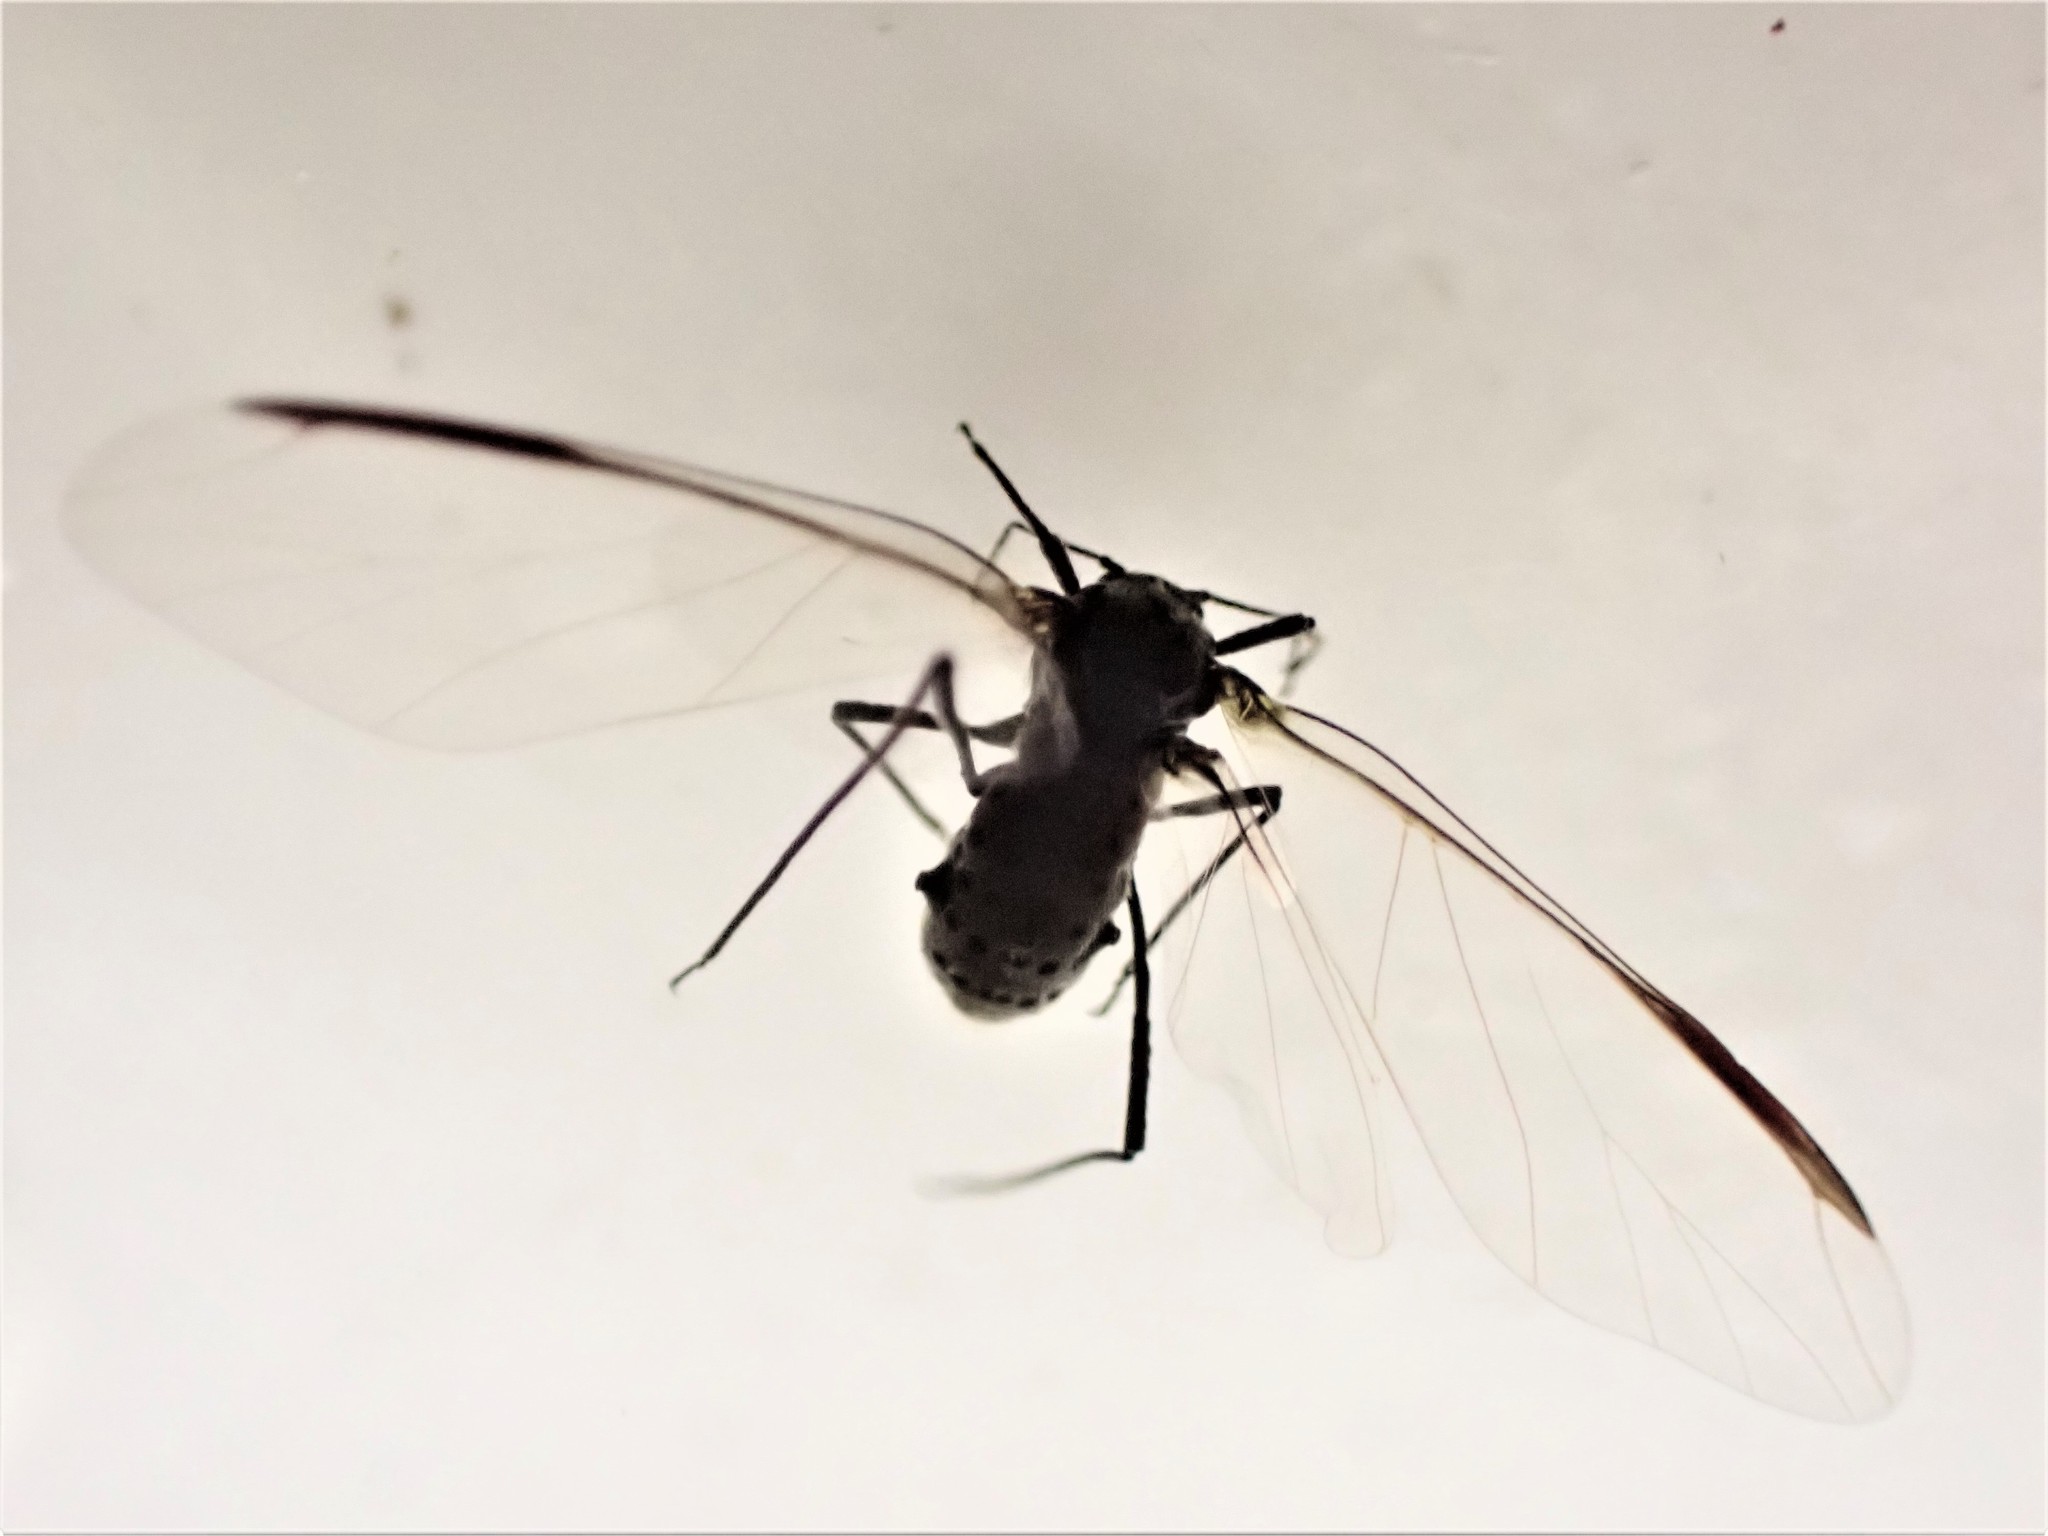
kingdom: Animalia
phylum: Arthropoda
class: Insecta
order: Hemiptera
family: Aphididae
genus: Tuberolachnus
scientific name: Tuberolachnus salignus
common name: Giant willow aphid
